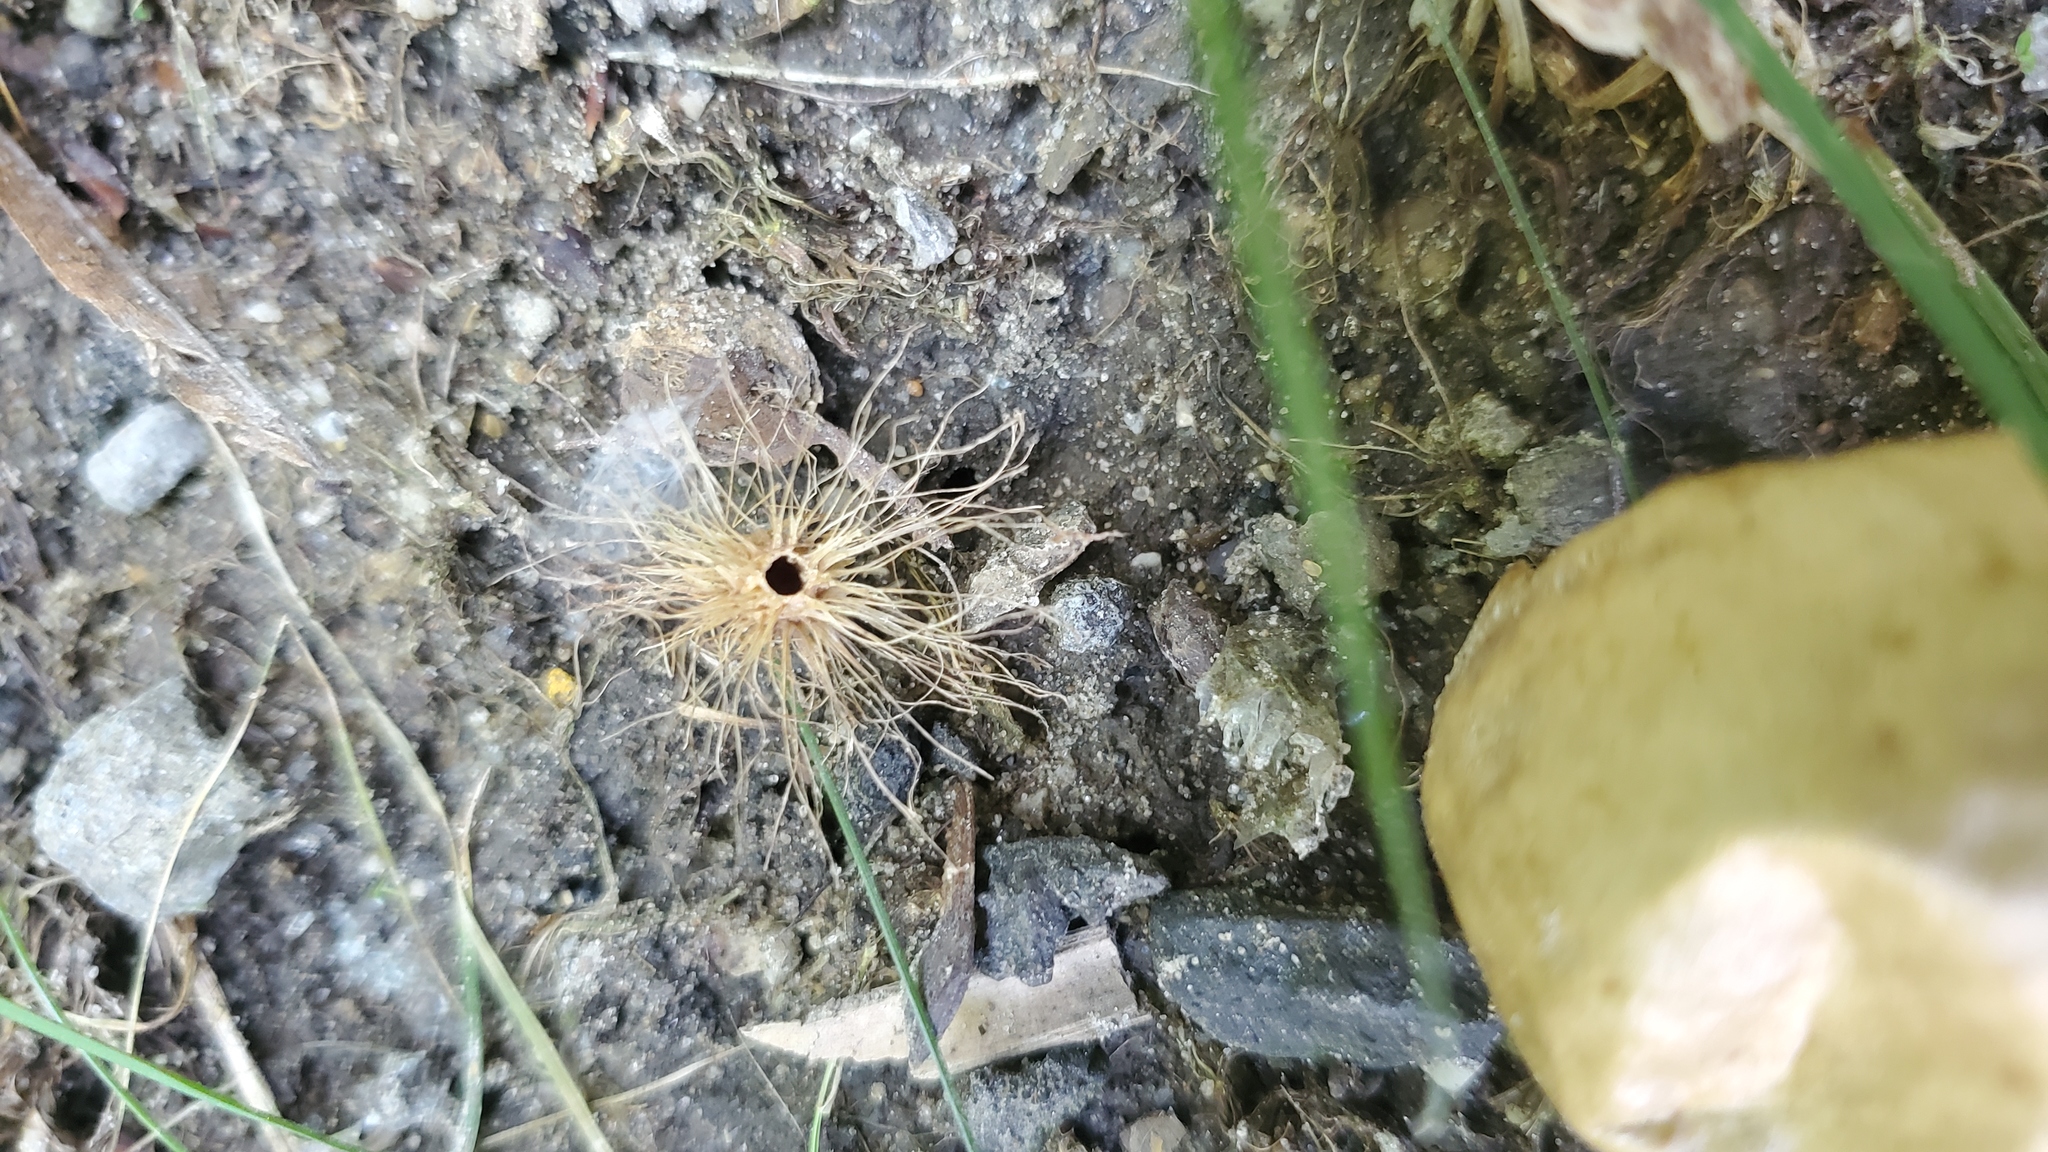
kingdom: Animalia
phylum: Arthropoda
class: Insecta
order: Hymenoptera
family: Cynipidae
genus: Amphibolips
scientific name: Amphibolips
